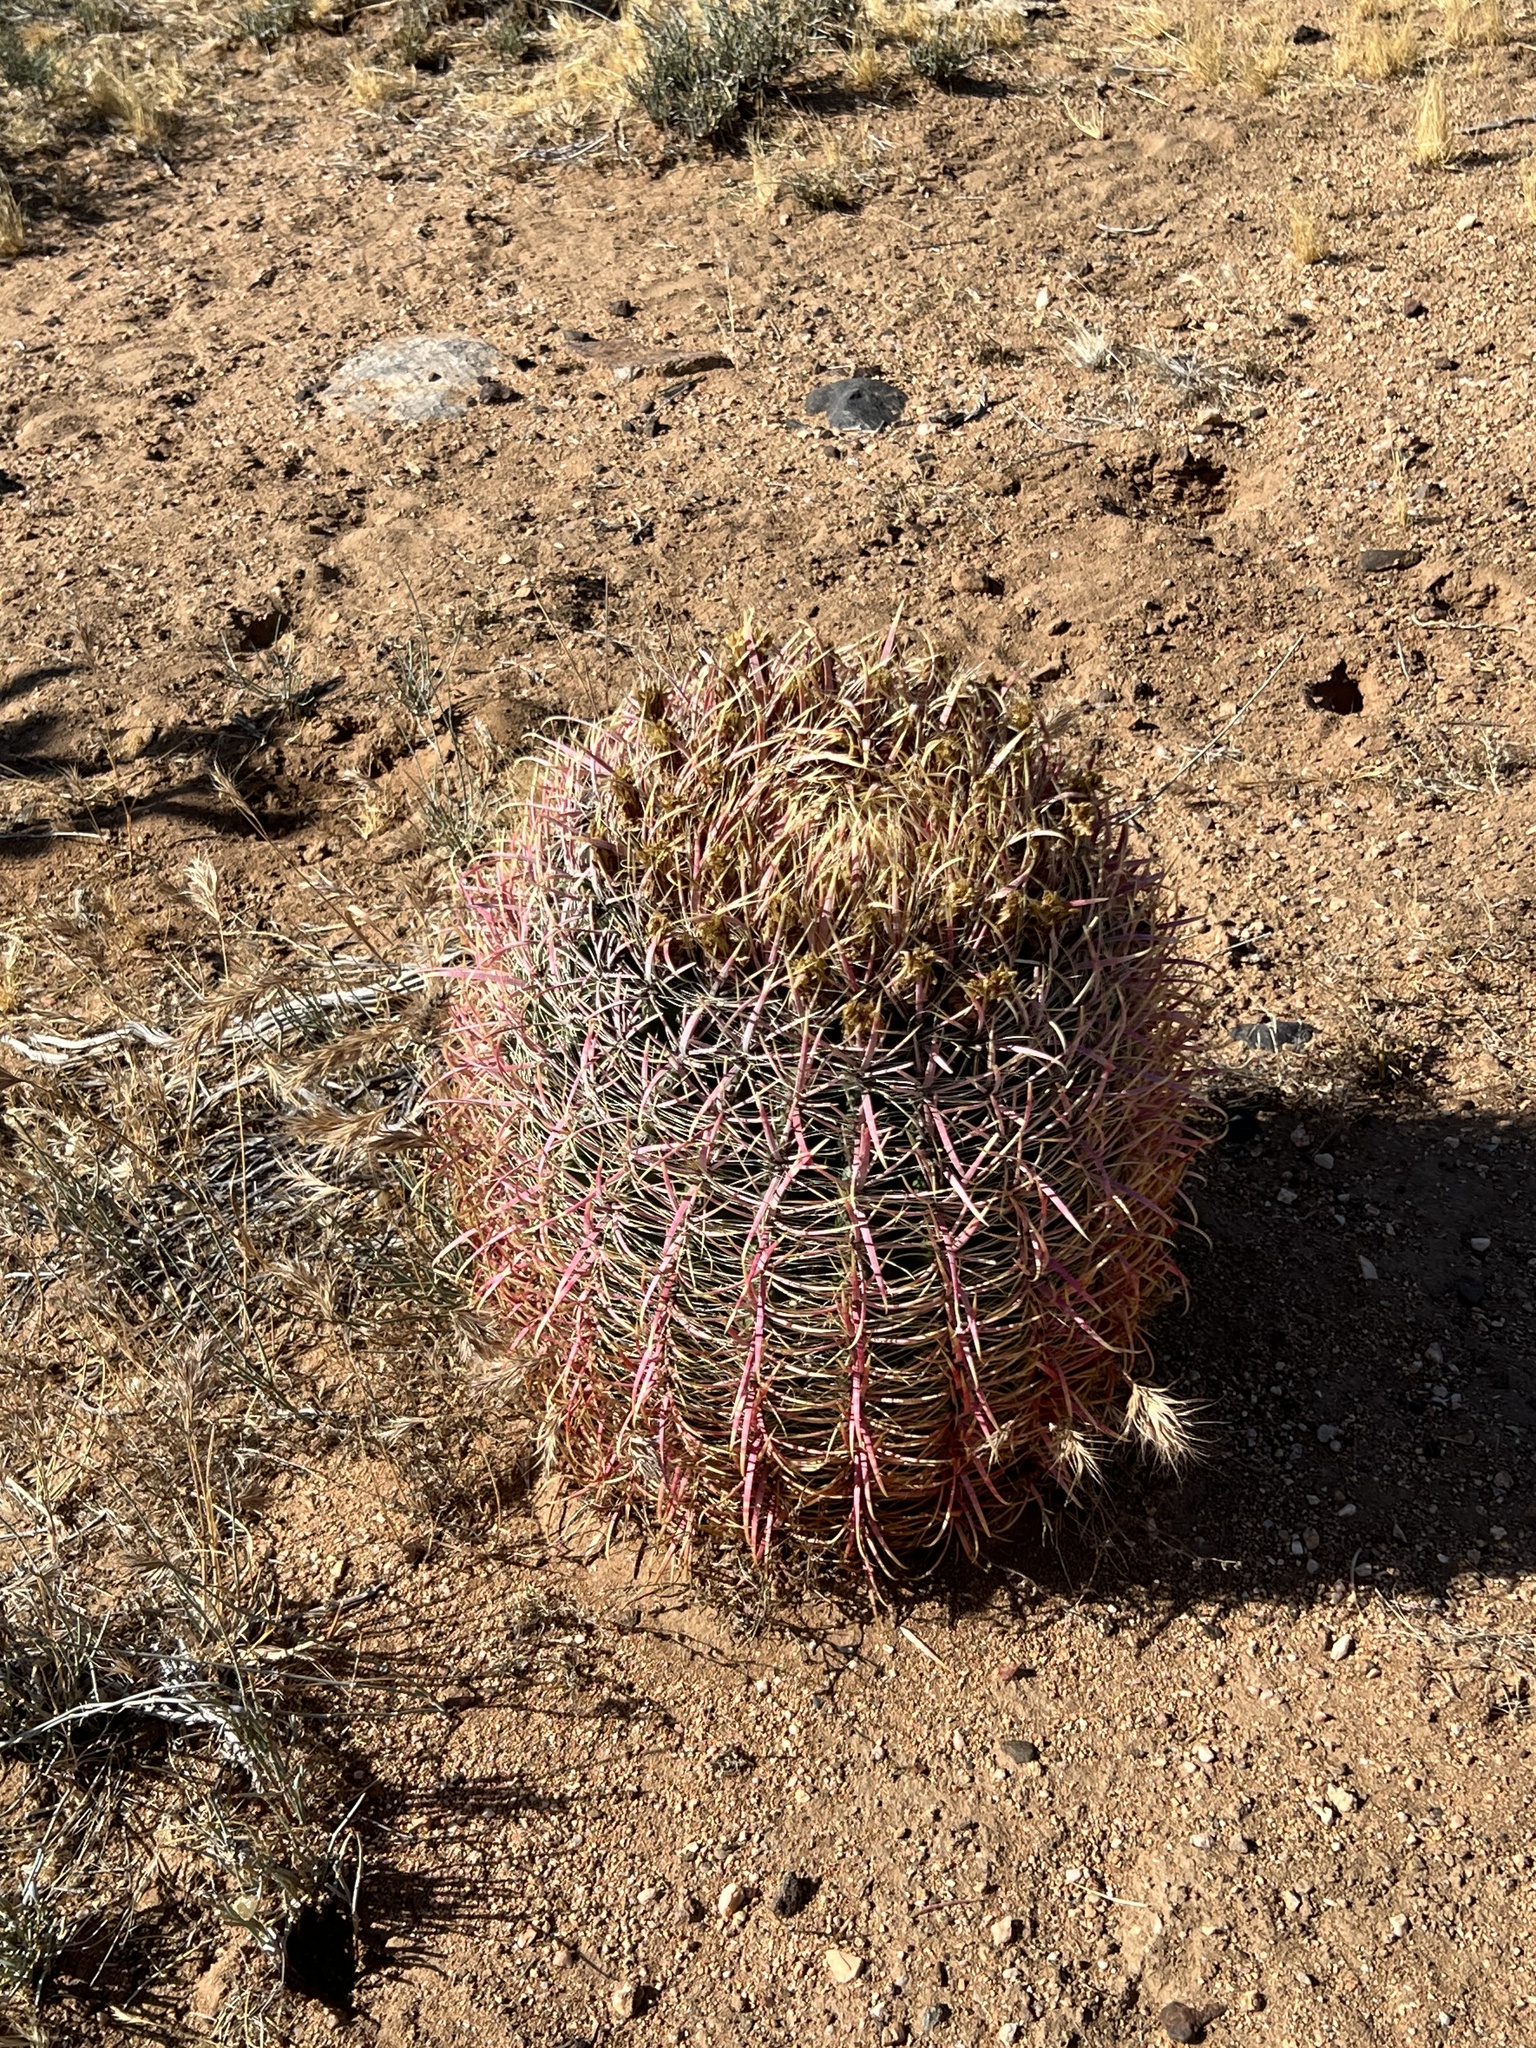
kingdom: Plantae
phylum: Tracheophyta
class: Magnoliopsida
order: Caryophyllales
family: Cactaceae
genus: Ferocactus
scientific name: Ferocactus cylindraceus
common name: California barrel cactus
